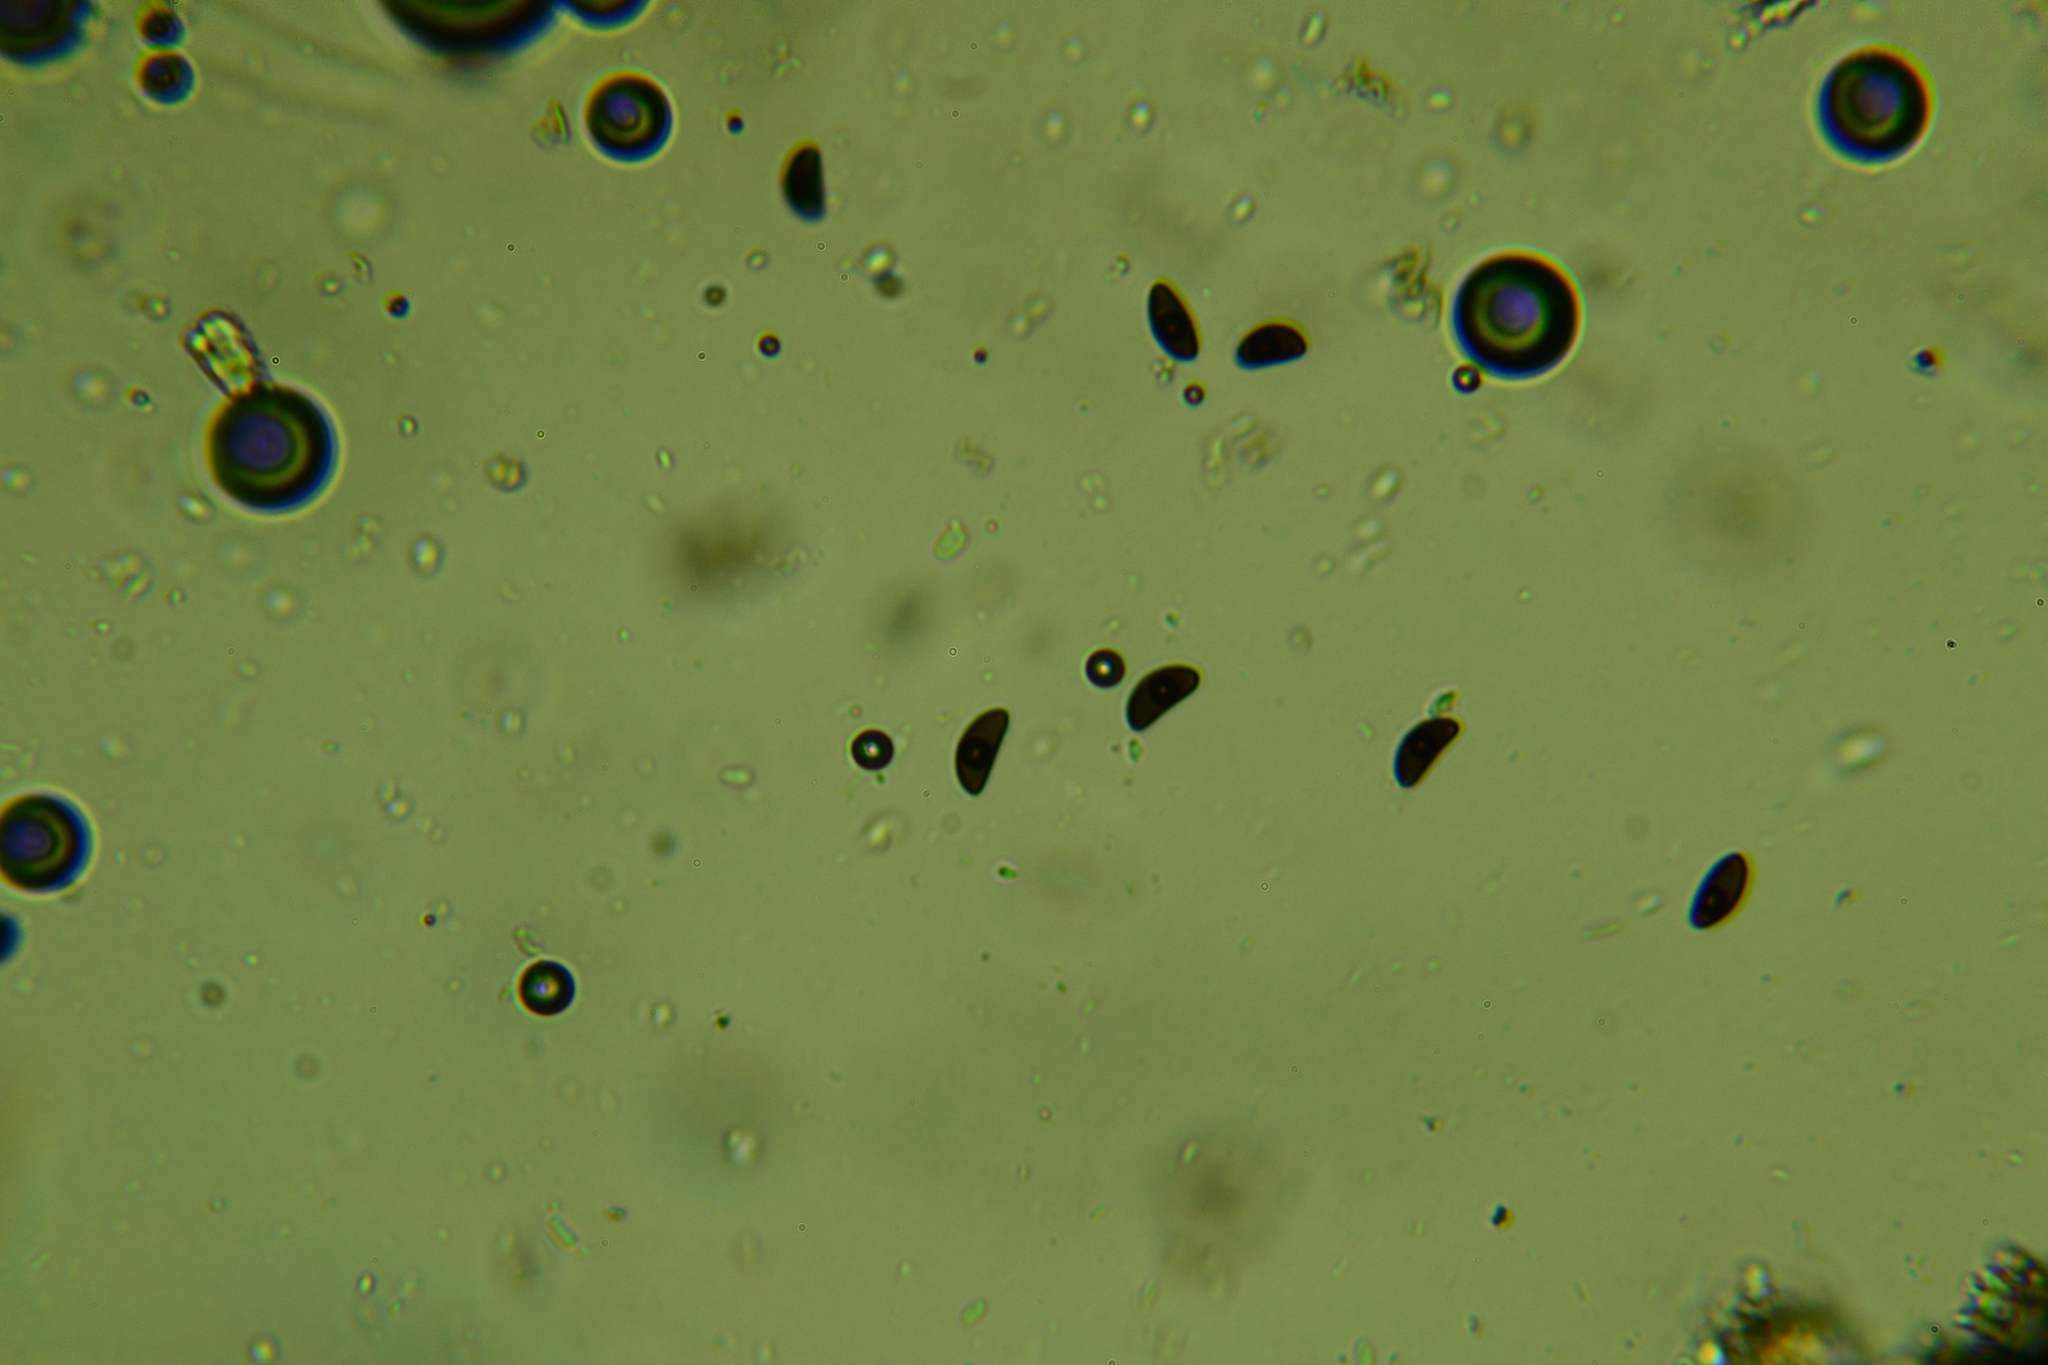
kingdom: Fungi
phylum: Ascomycota
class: Sordariomycetes
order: Xylariales
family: Hypoxylaceae
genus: Hypoxylon
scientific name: Hypoxylon perforatum
